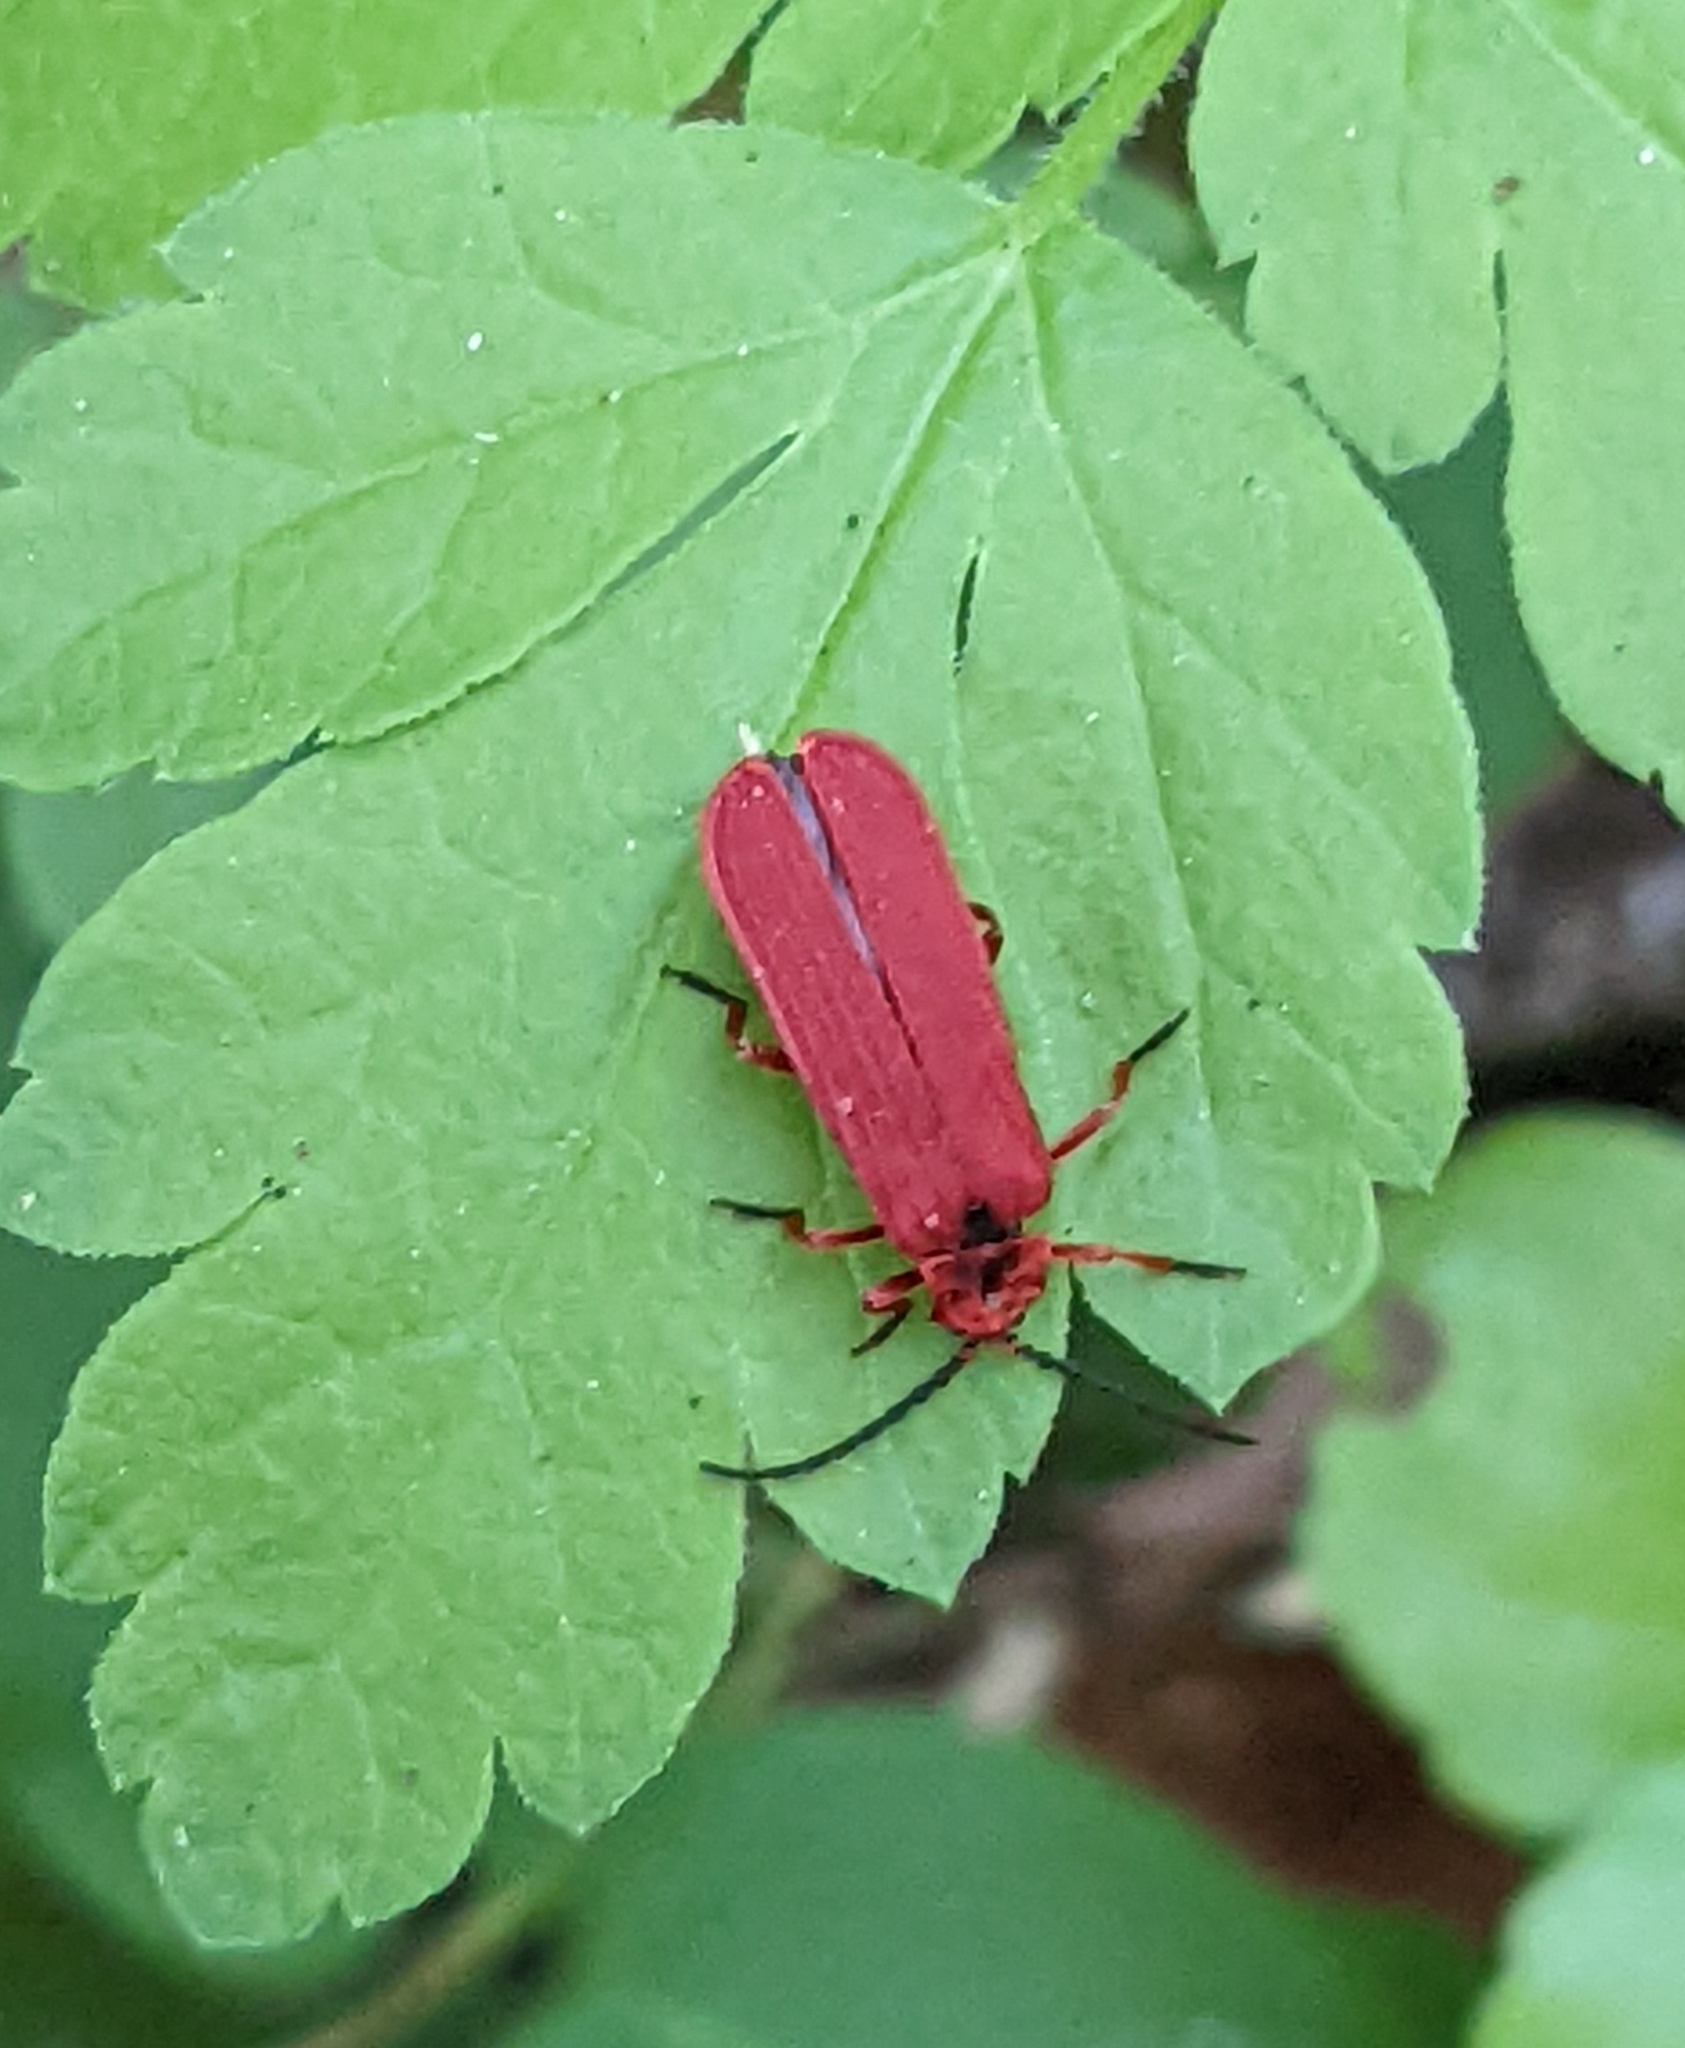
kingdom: Animalia
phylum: Arthropoda
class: Insecta
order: Coleoptera
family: Lycidae
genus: Dictyoptera
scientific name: Dictyoptera simplicipes
